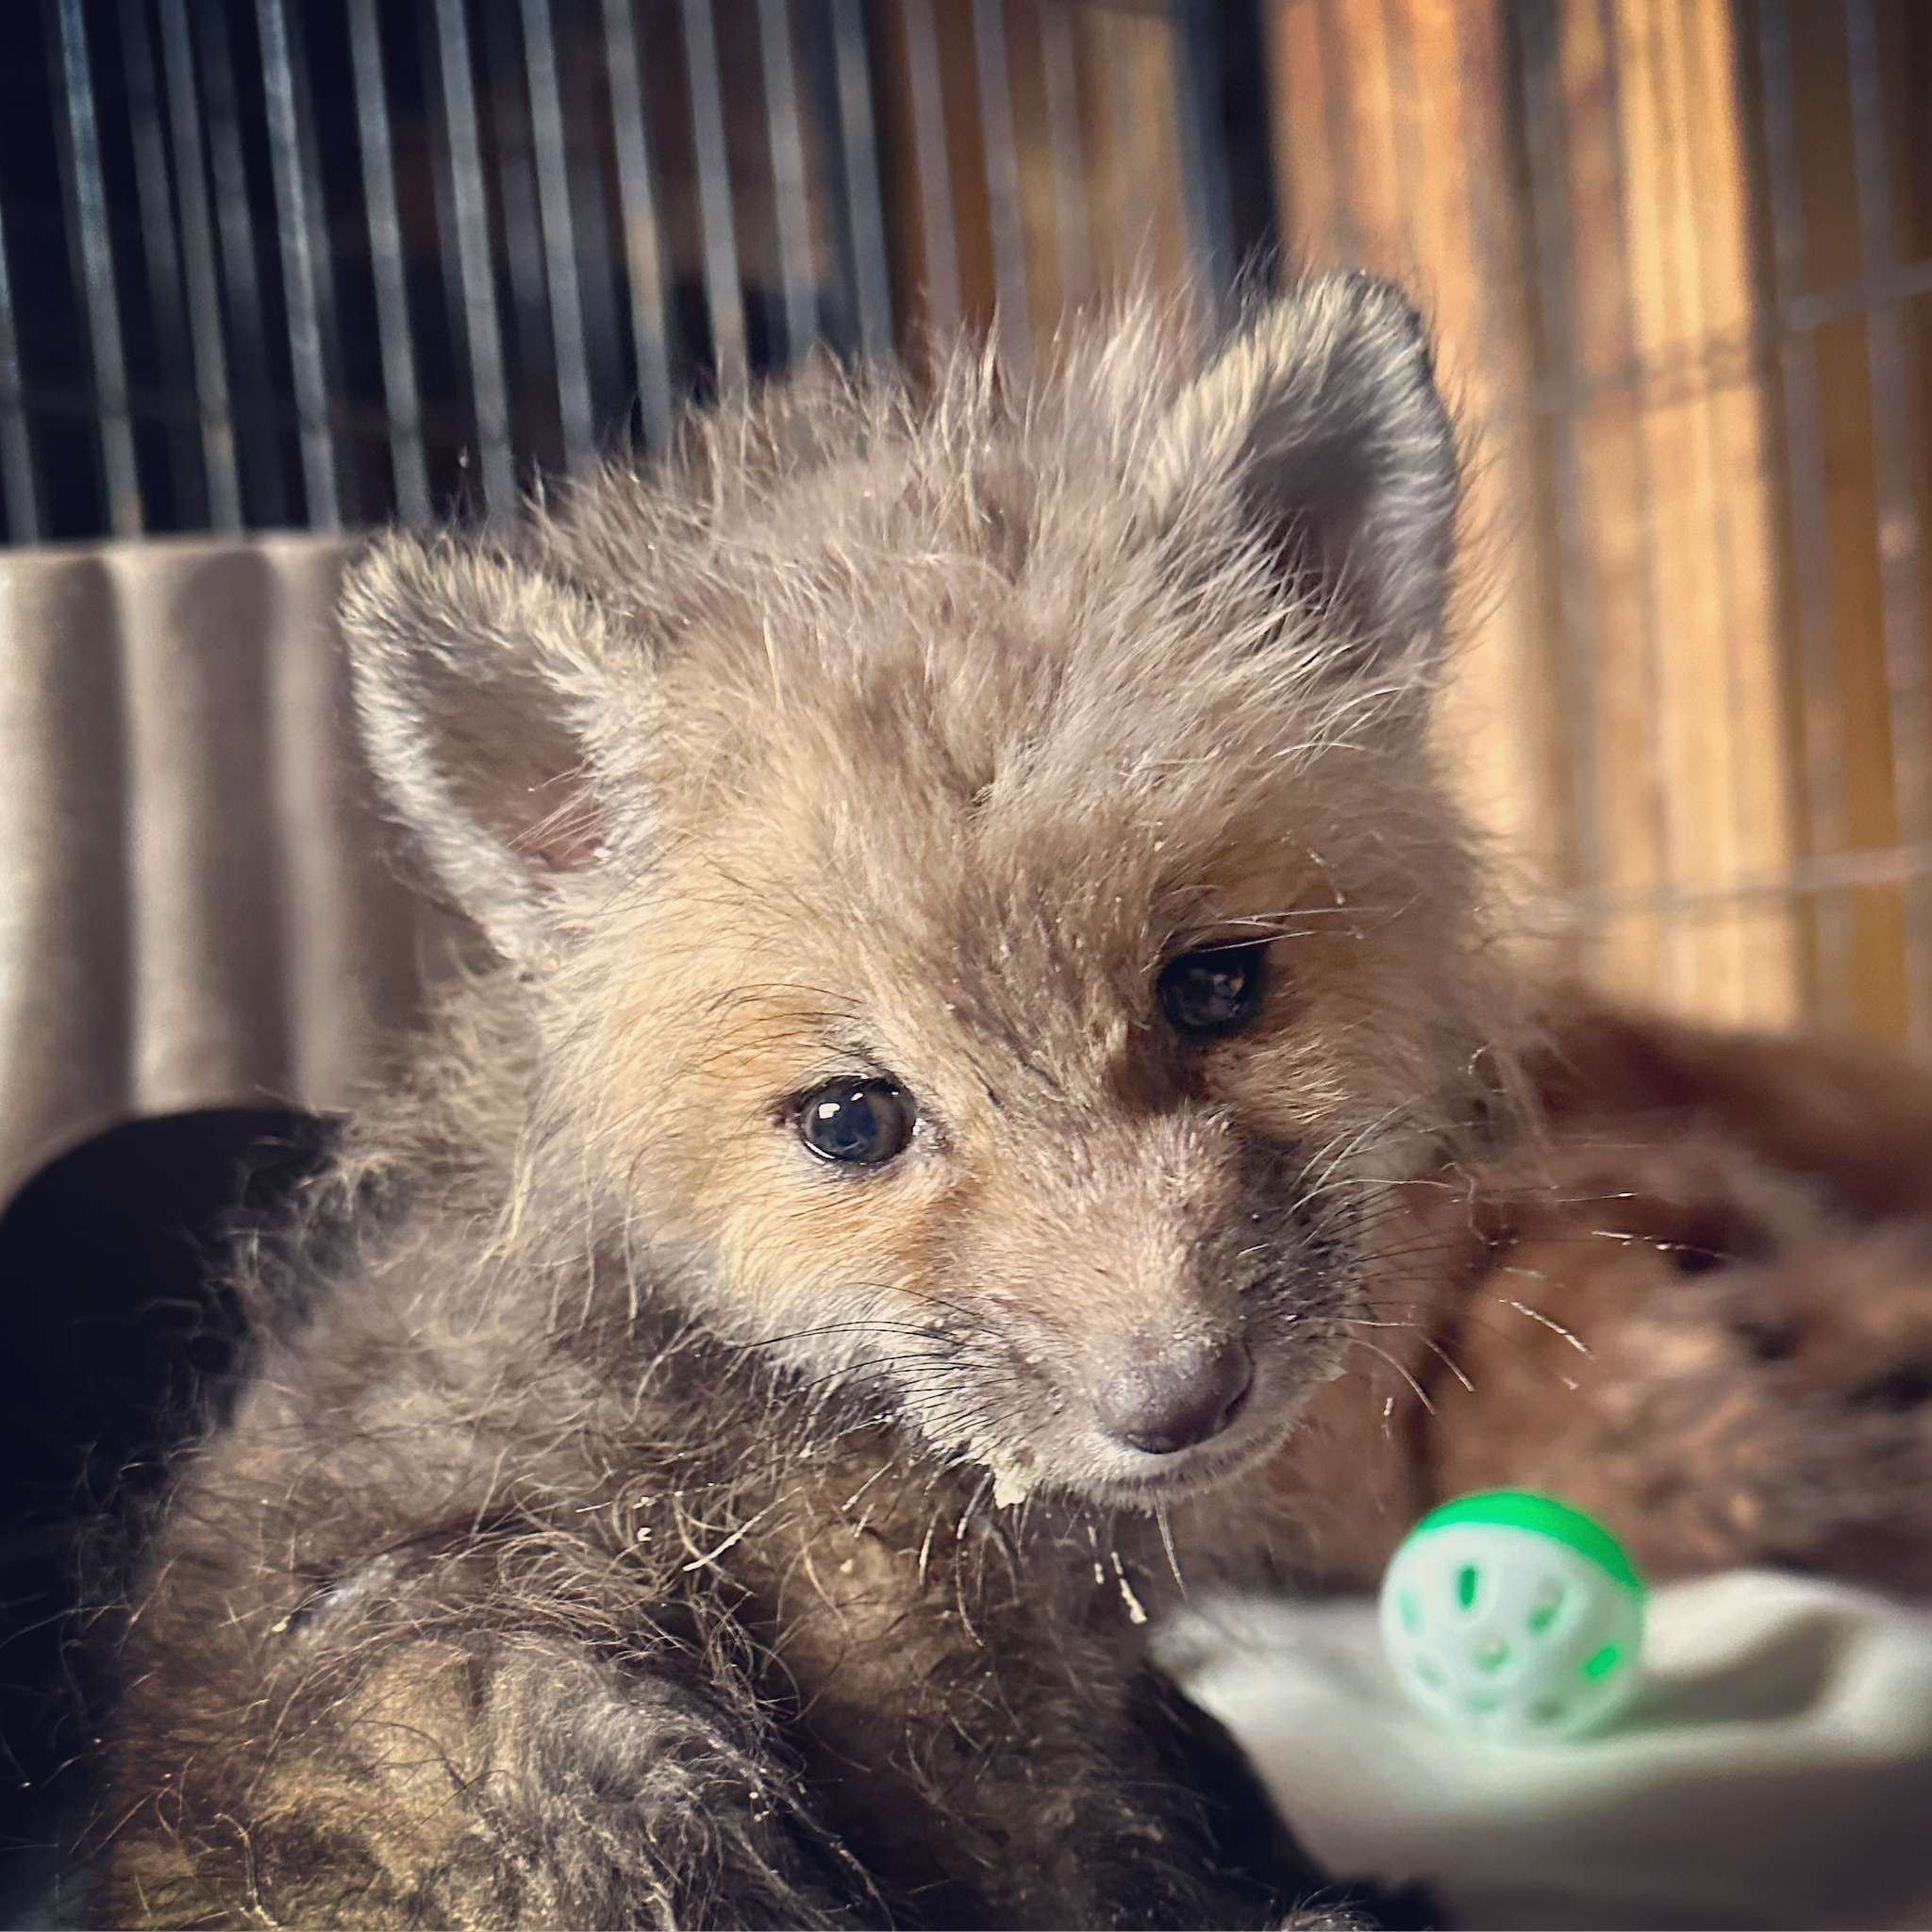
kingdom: Animalia
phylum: Chordata
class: Mammalia
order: Carnivora
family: Canidae
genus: Vulpes
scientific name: Vulpes vulpes
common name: Red fox
